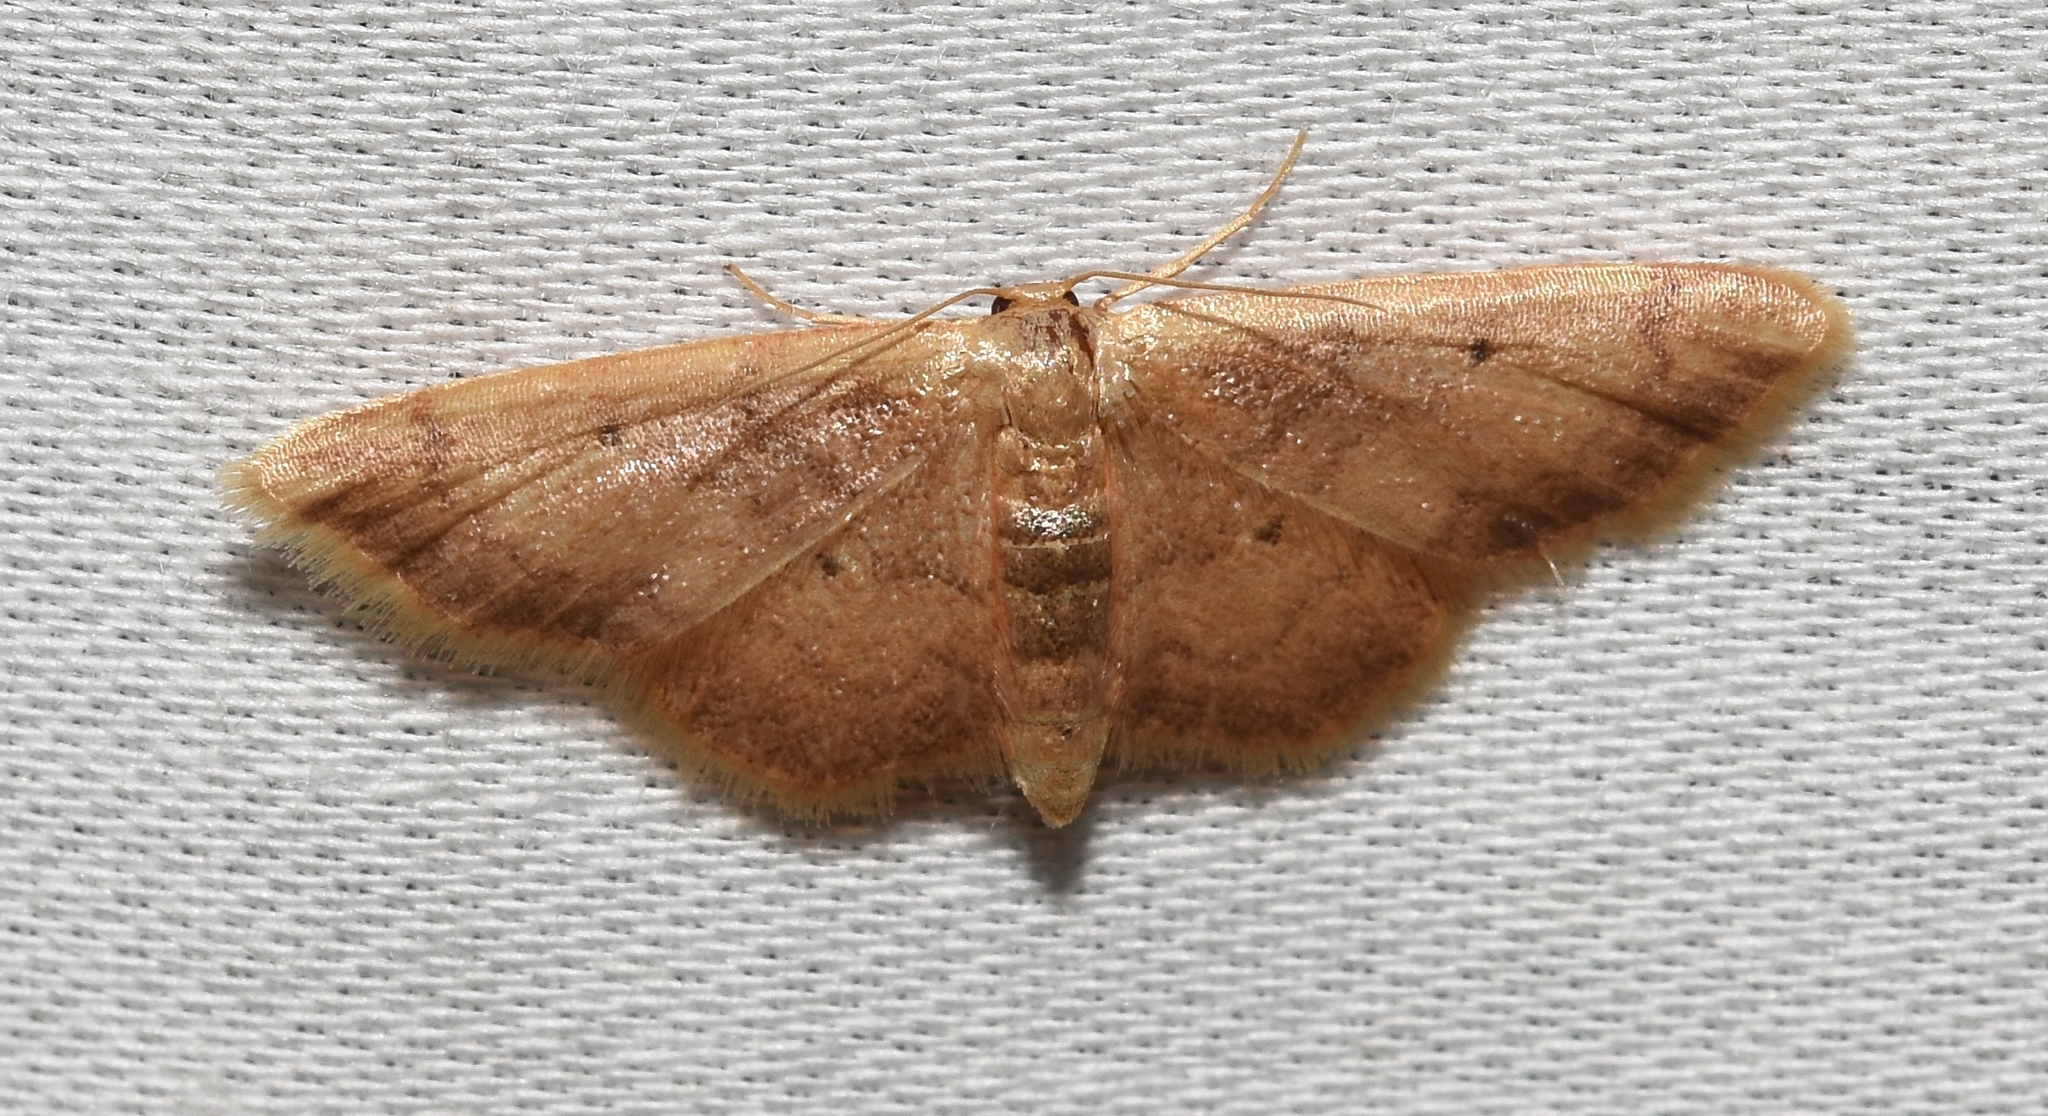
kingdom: Animalia
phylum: Arthropoda
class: Insecta
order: Lepidoptera
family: Geometridae
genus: Idaea
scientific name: Idaea demissaria
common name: Red-bordered wave
